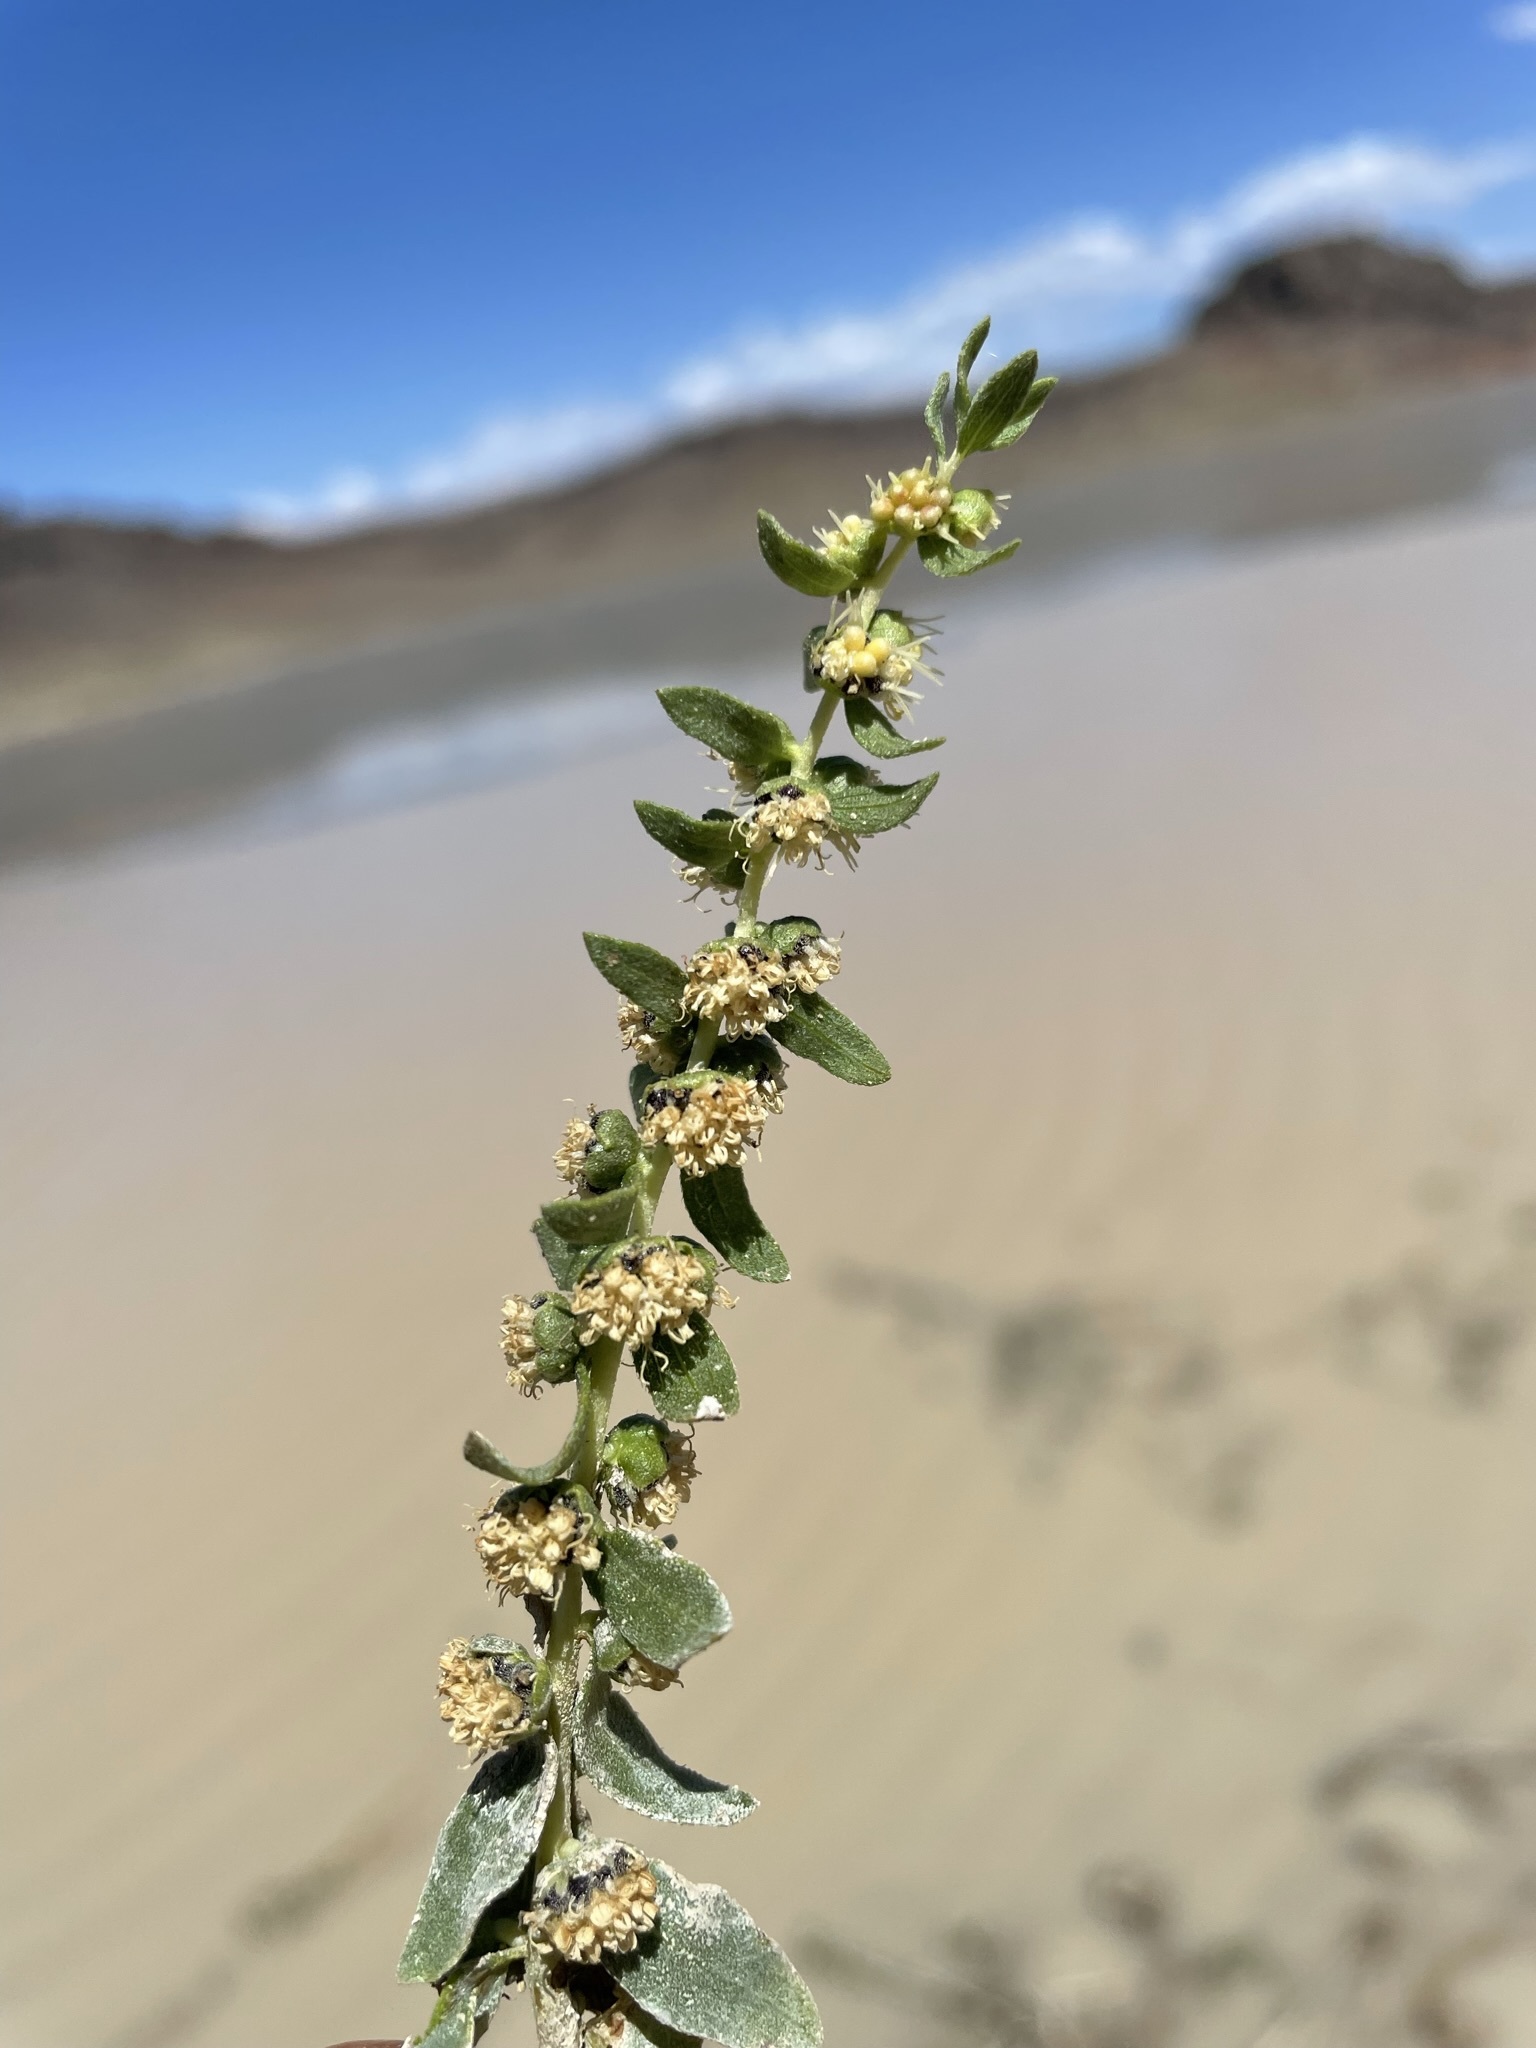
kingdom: Plantae
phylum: Tracheophyta
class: Magnoliopsida
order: Asterales
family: Asteraceae
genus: Iva
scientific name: Iva axillaris
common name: Poverty sumpweed
